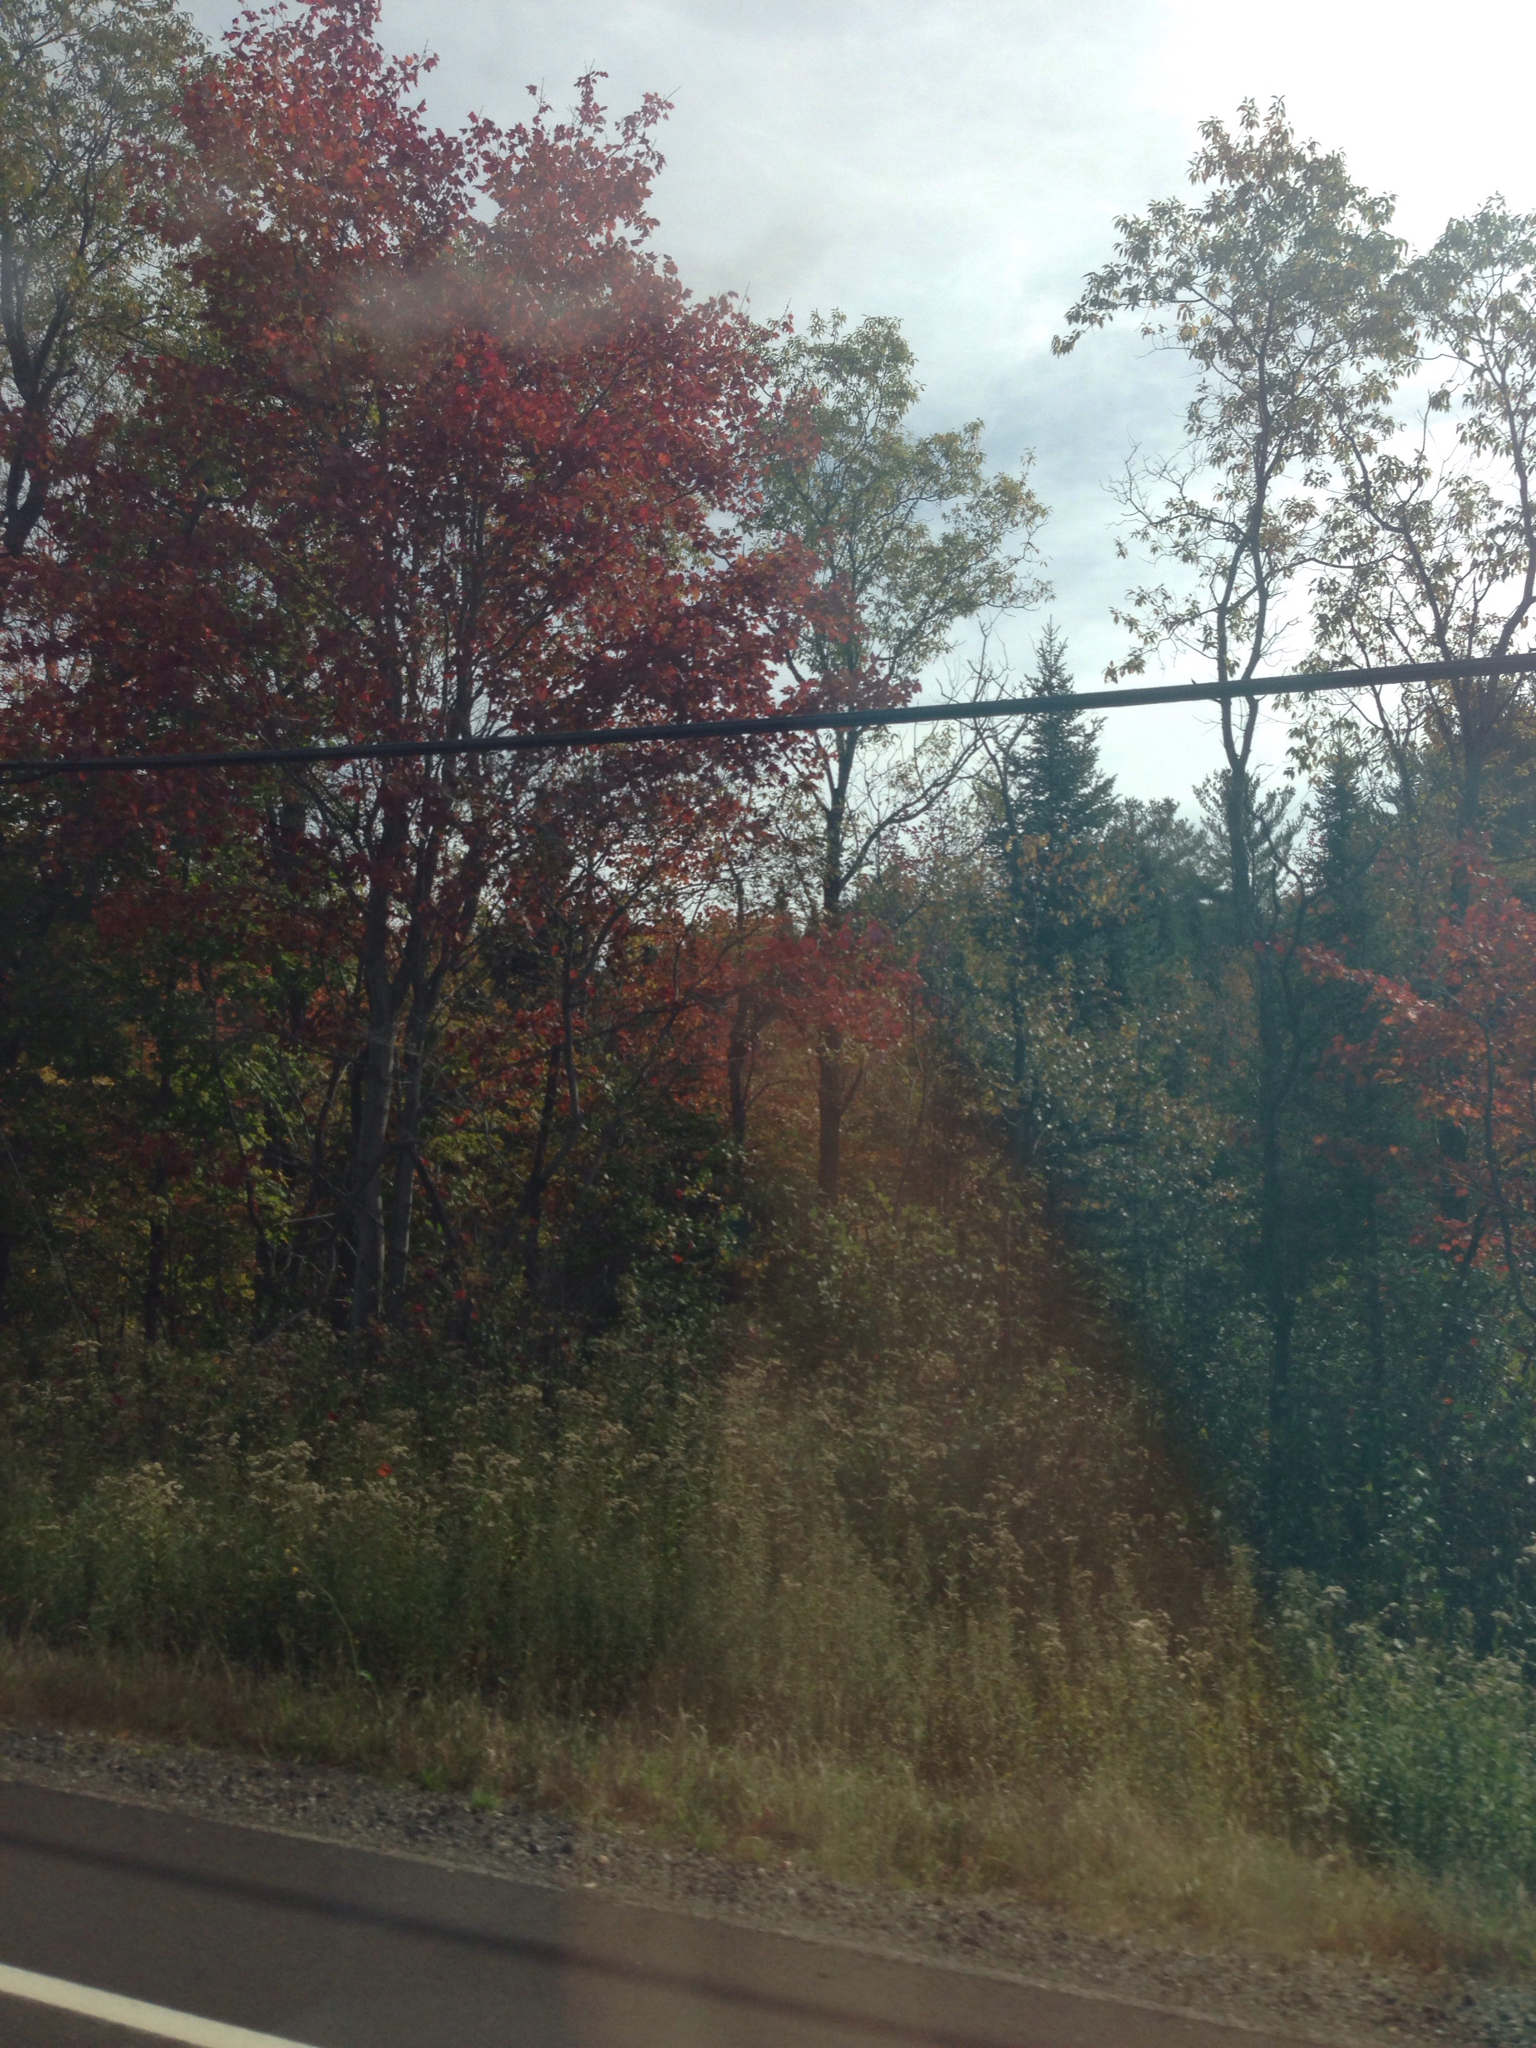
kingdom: Plantae
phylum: Tracheophyta
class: Magnoliopsida
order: Sapindales
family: Sapindaceae
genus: Acer
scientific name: Acer rubrum
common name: Red maple
